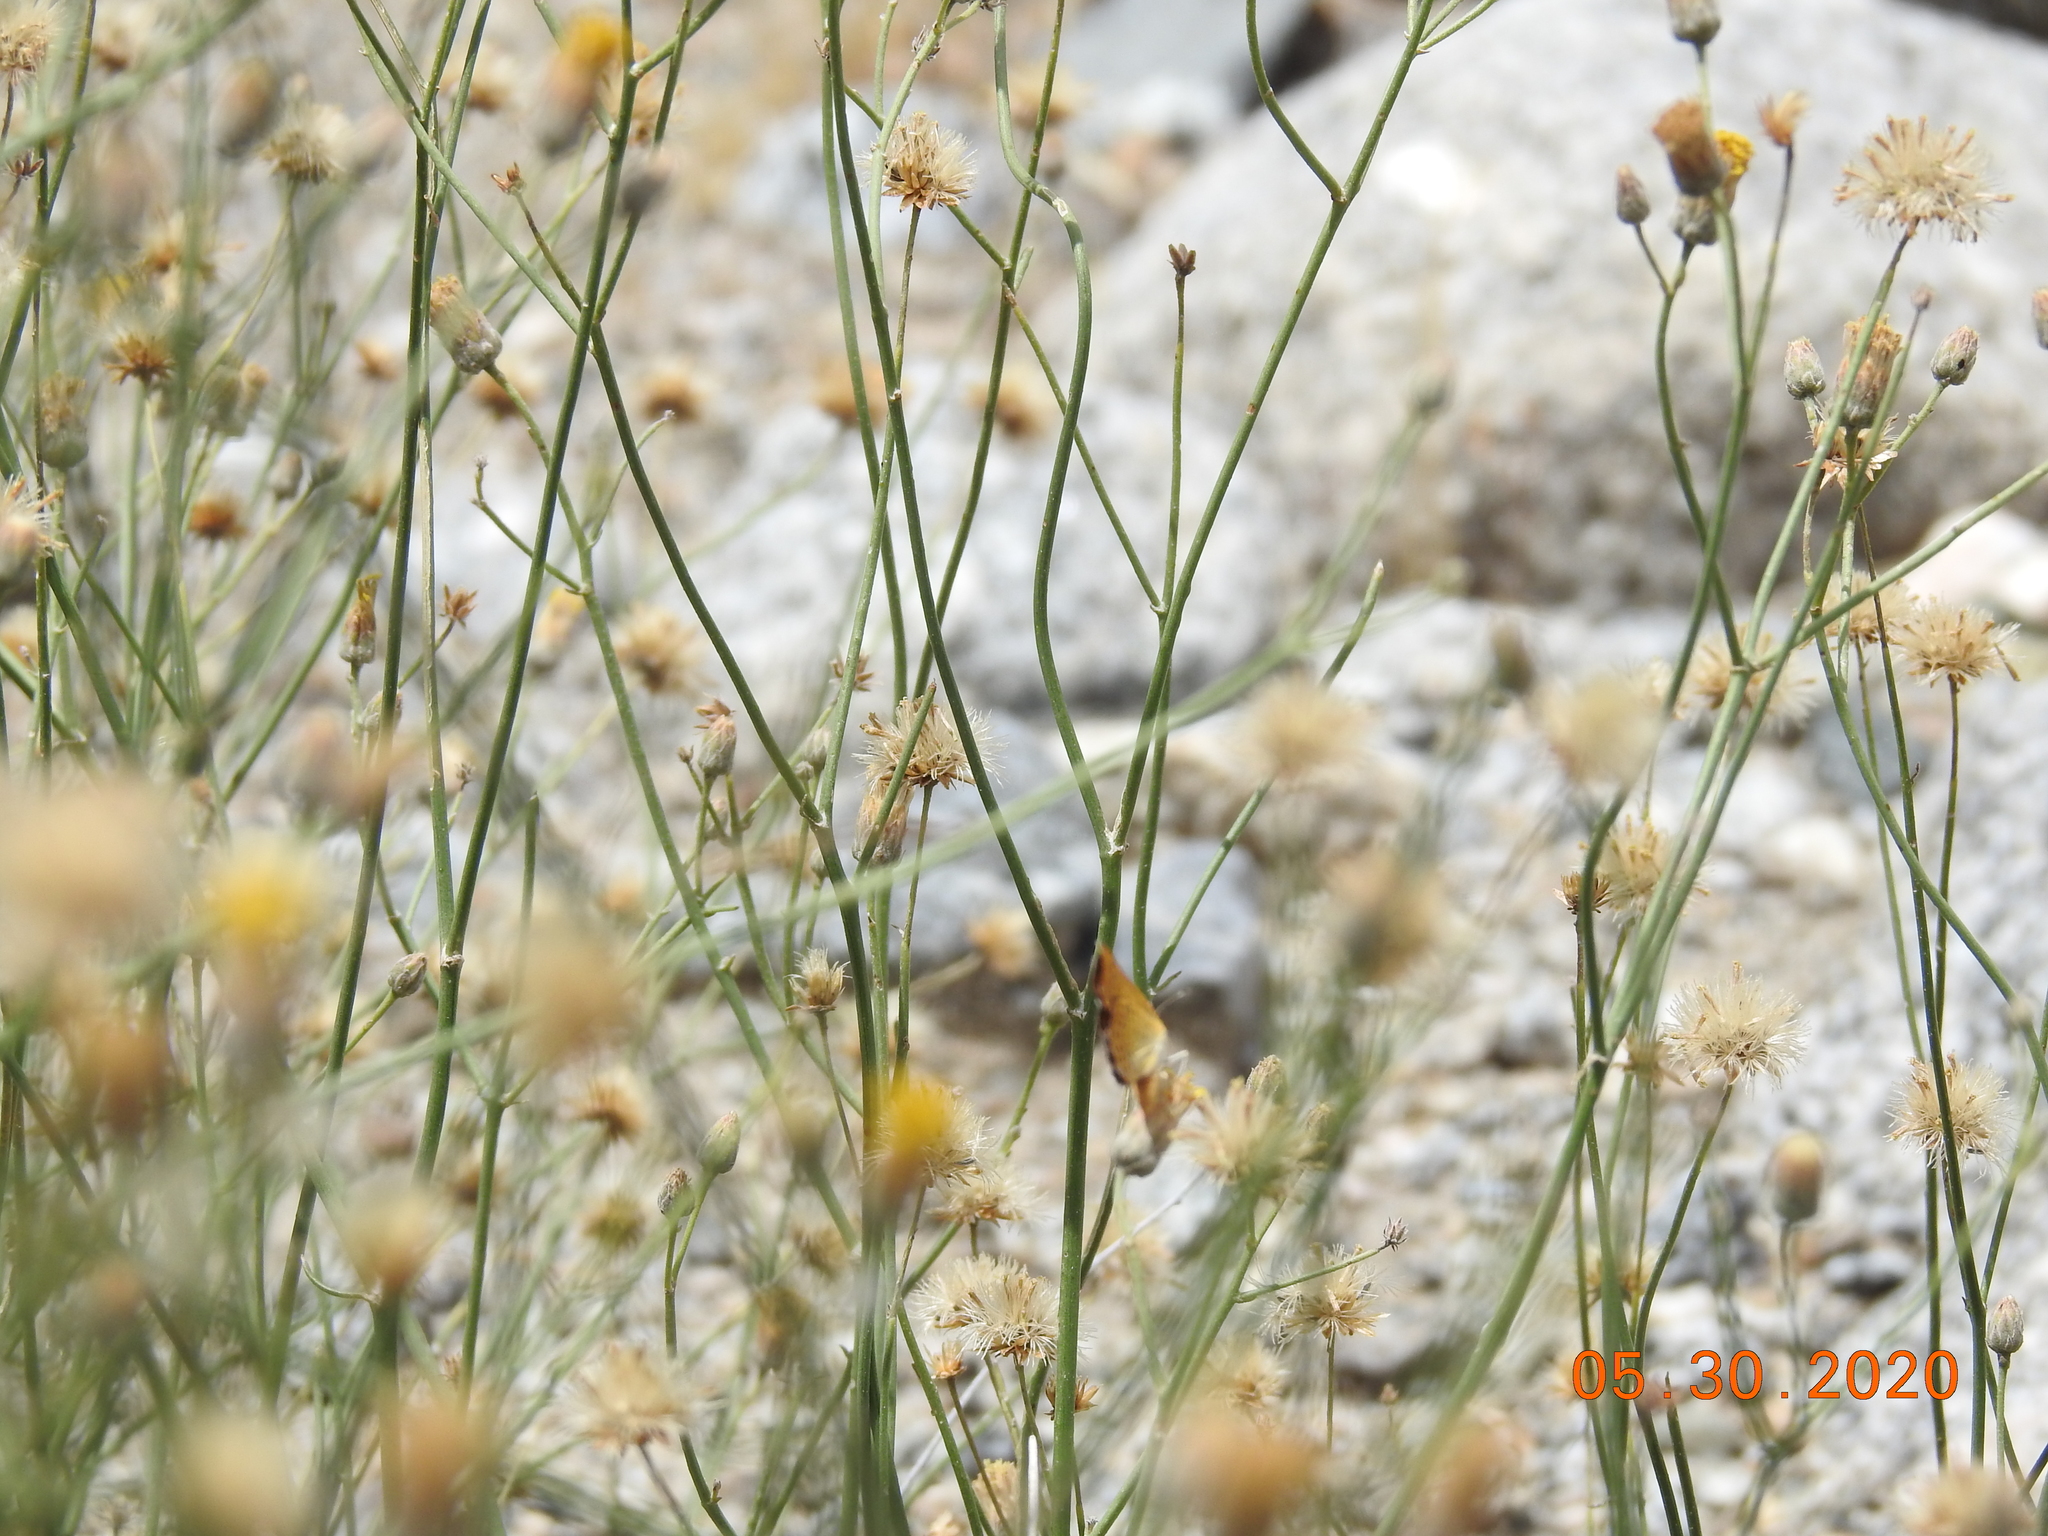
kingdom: Plantae
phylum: Tracheophyta
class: Magnoliopsida
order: Asterales
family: Asteraceae
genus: Bebbia
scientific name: Bebbia juncea
